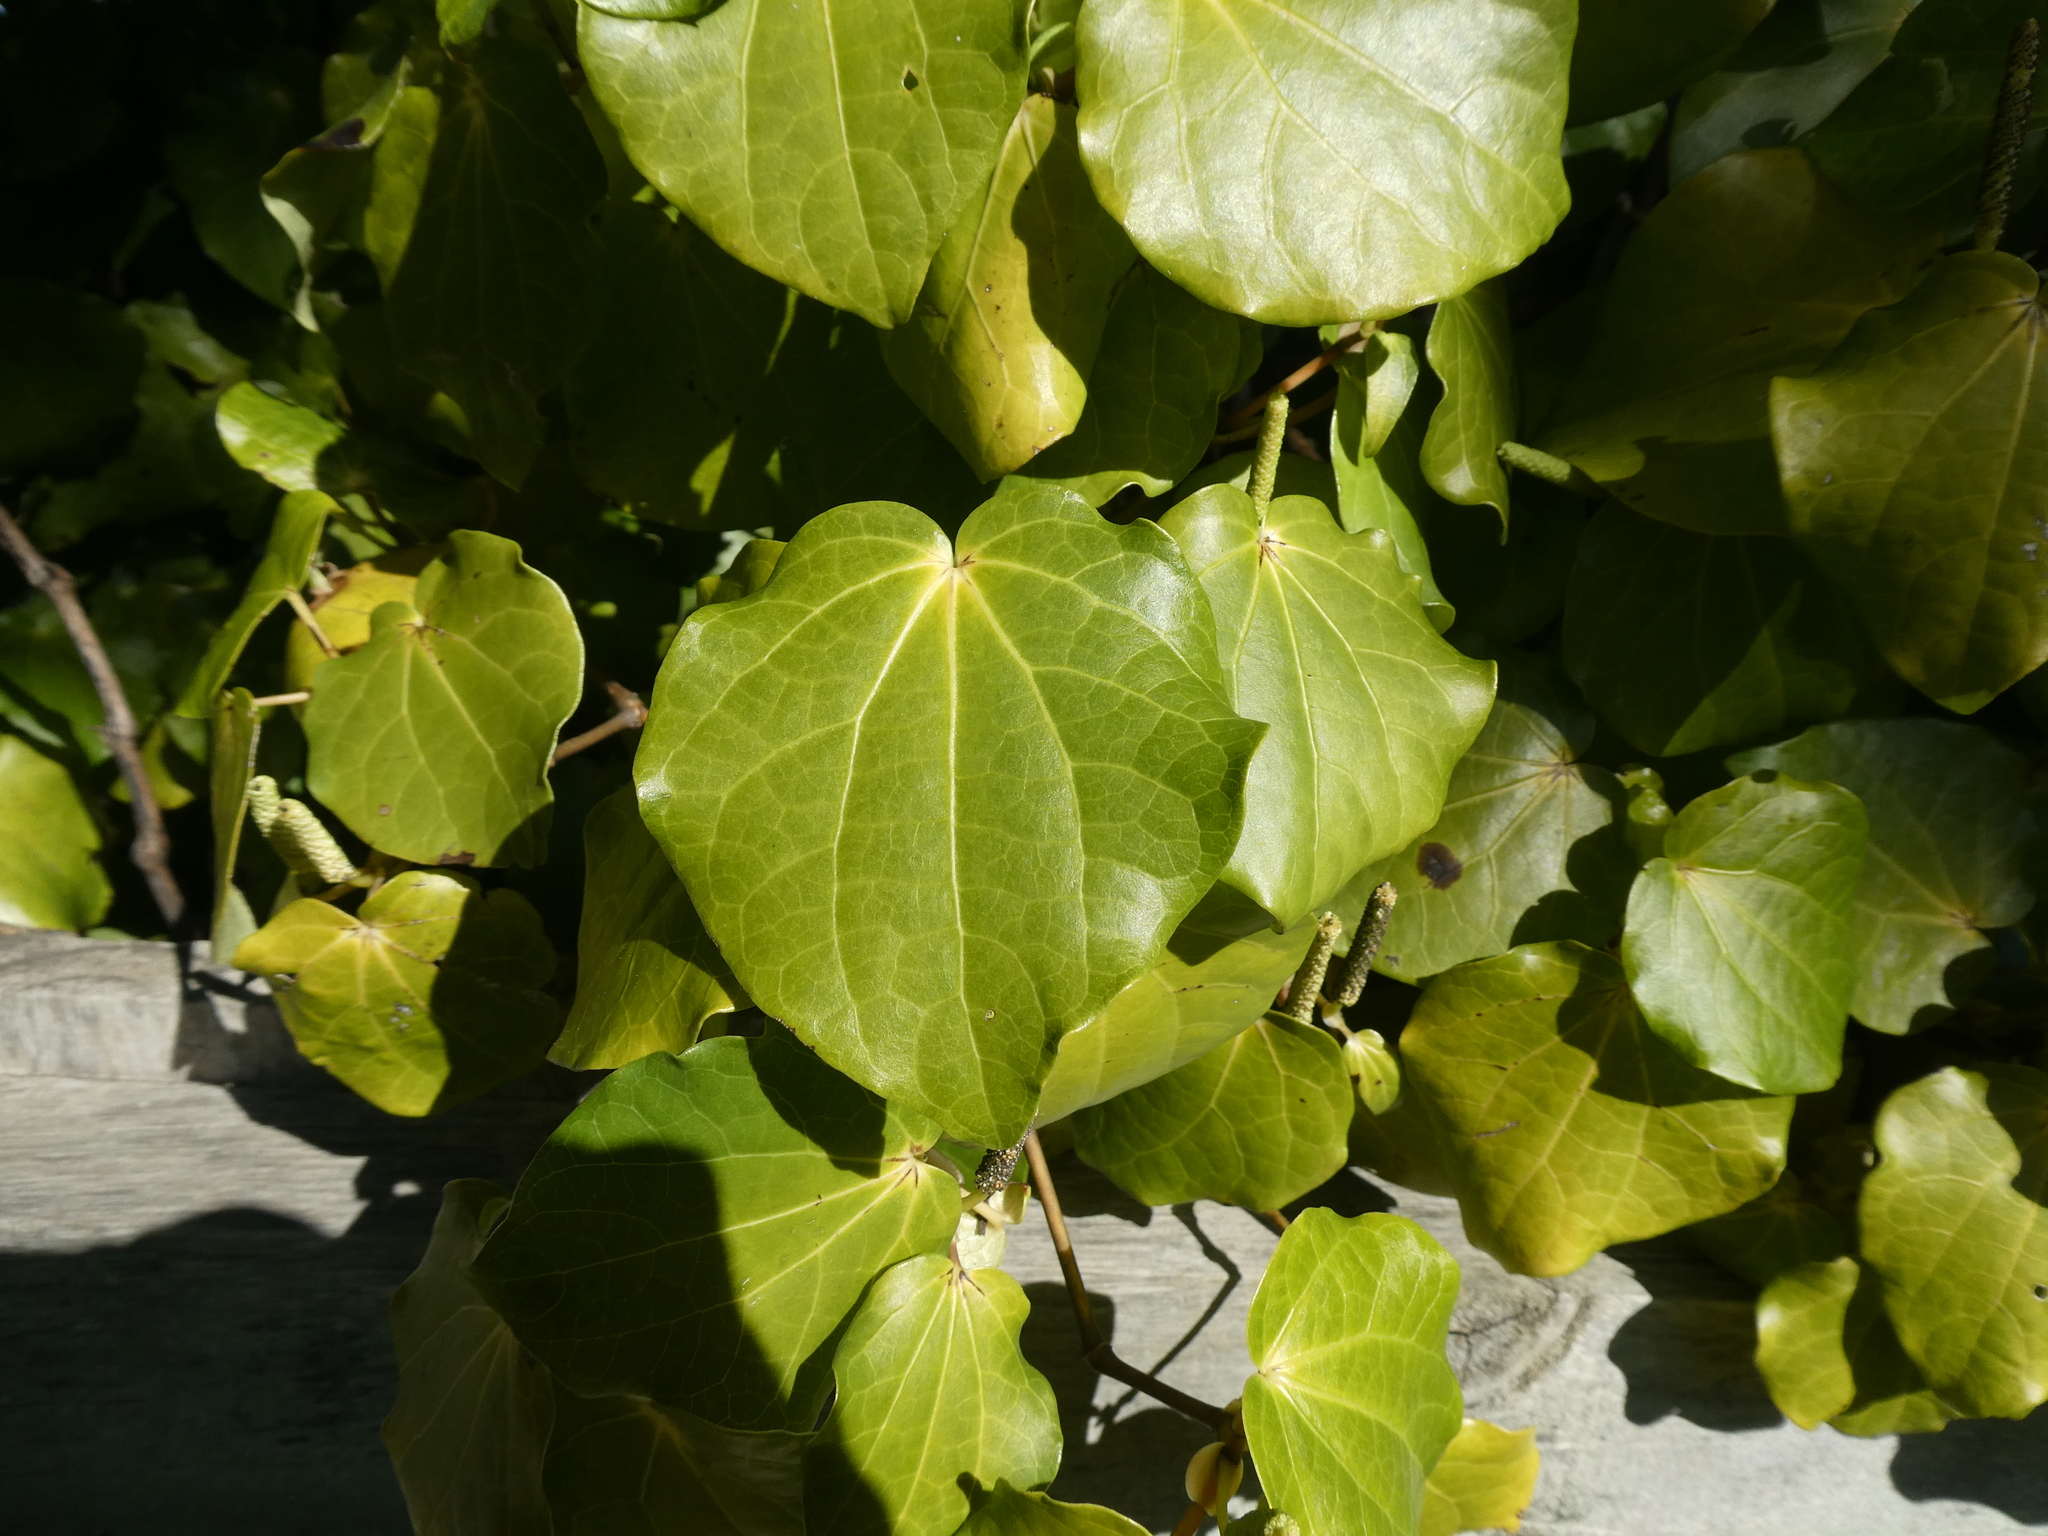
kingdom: Plantae
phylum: Tracheophyta
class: Magnoliopsida
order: Piperales
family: Piperaceae
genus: Macropiper
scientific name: Macropiper excelsum
